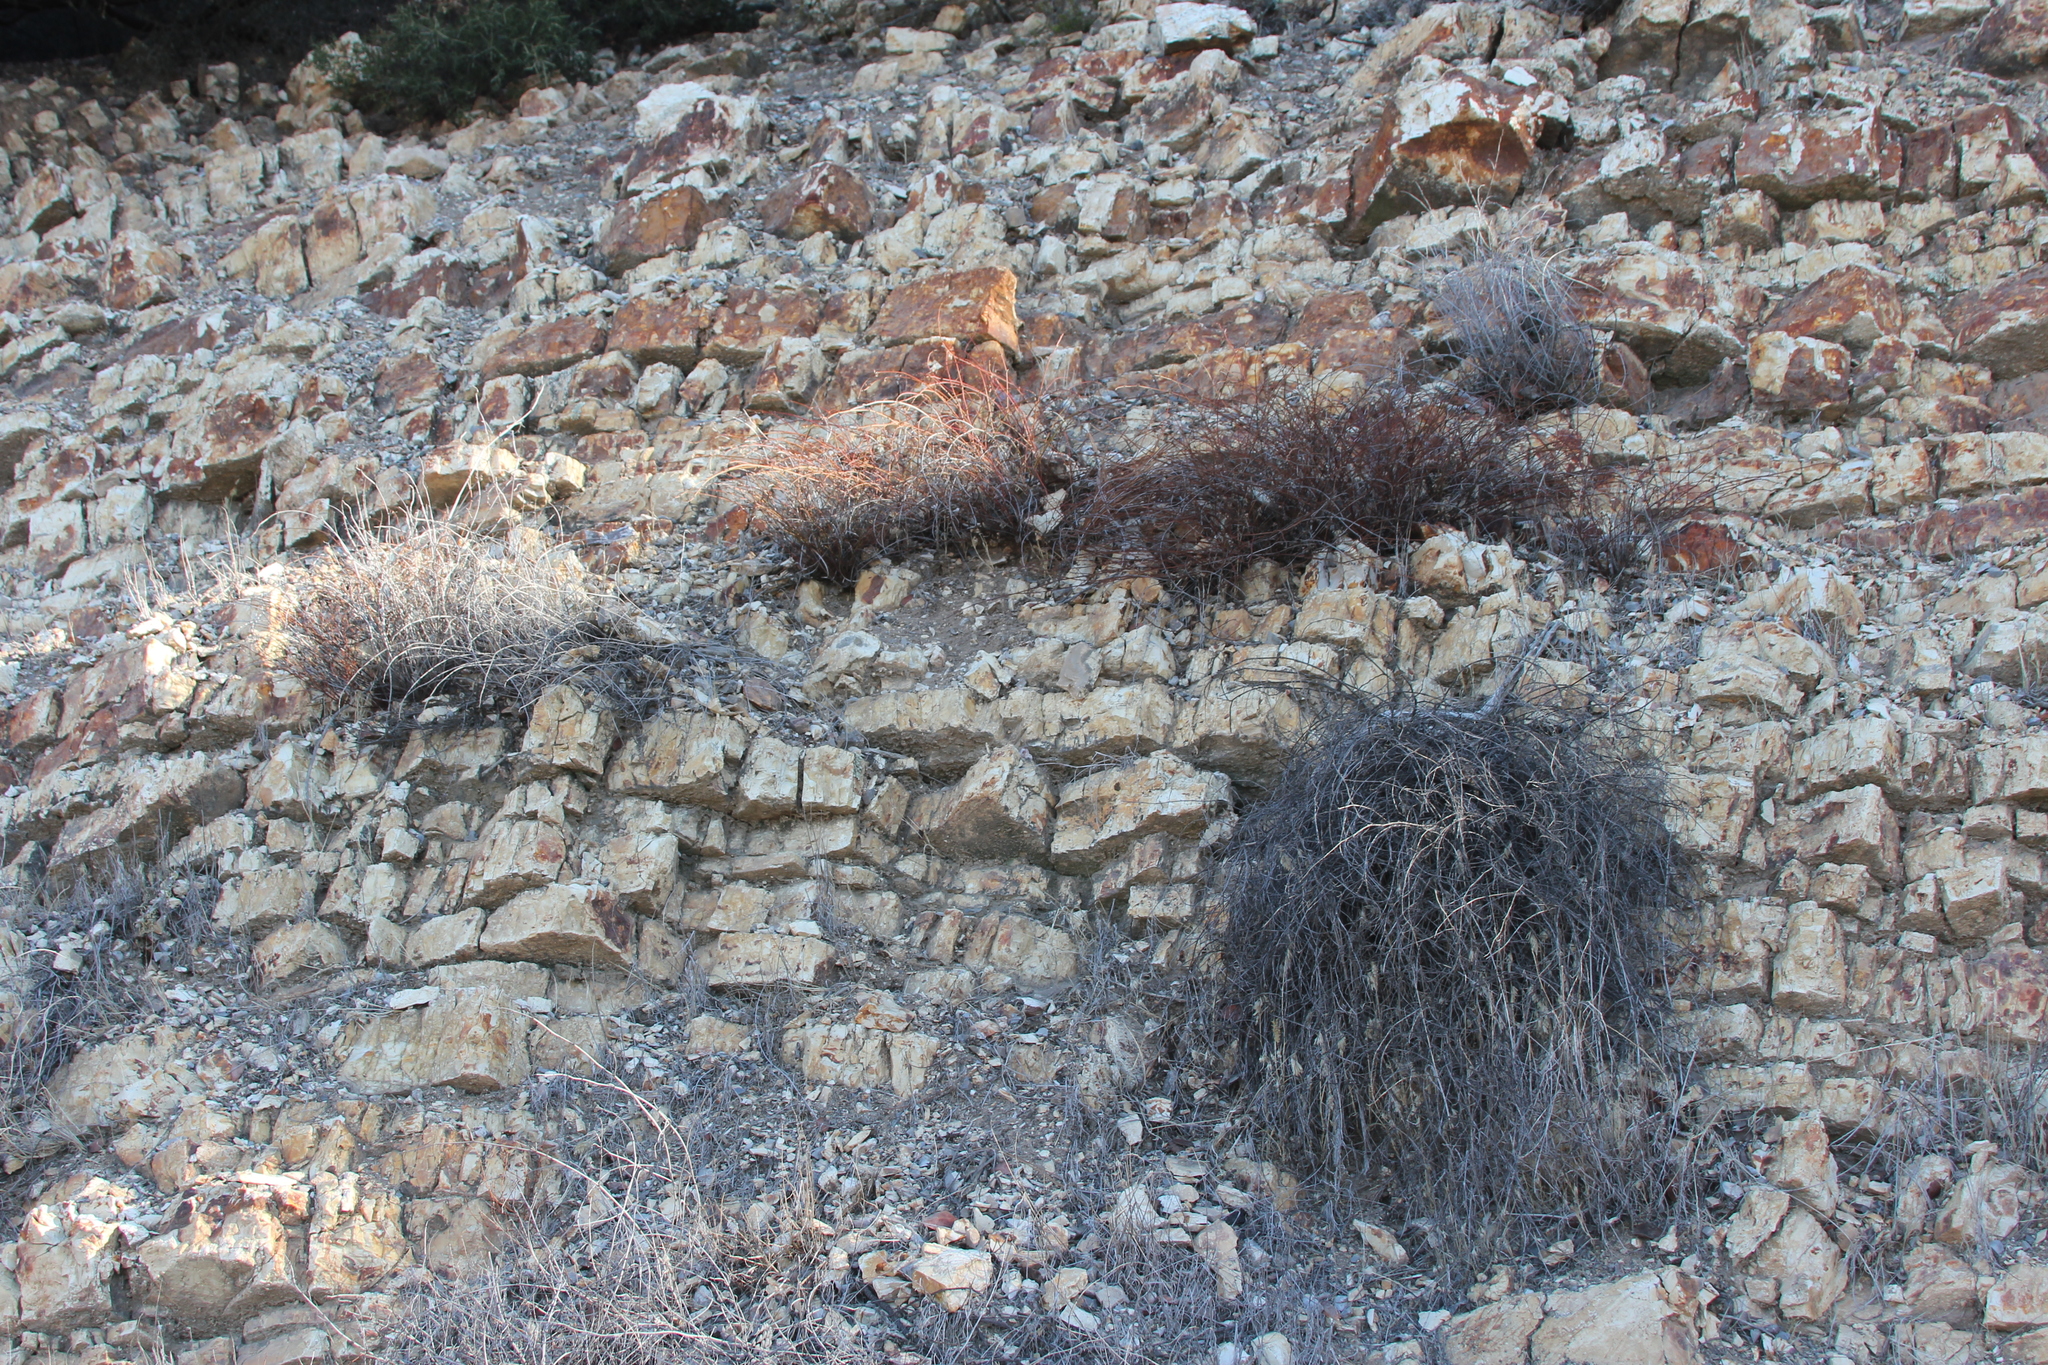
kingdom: Plantae
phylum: Tracheophyta
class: Magnoliopsida
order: Fabales
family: Fabaceae
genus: Acmispon
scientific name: Acmispon glaber
